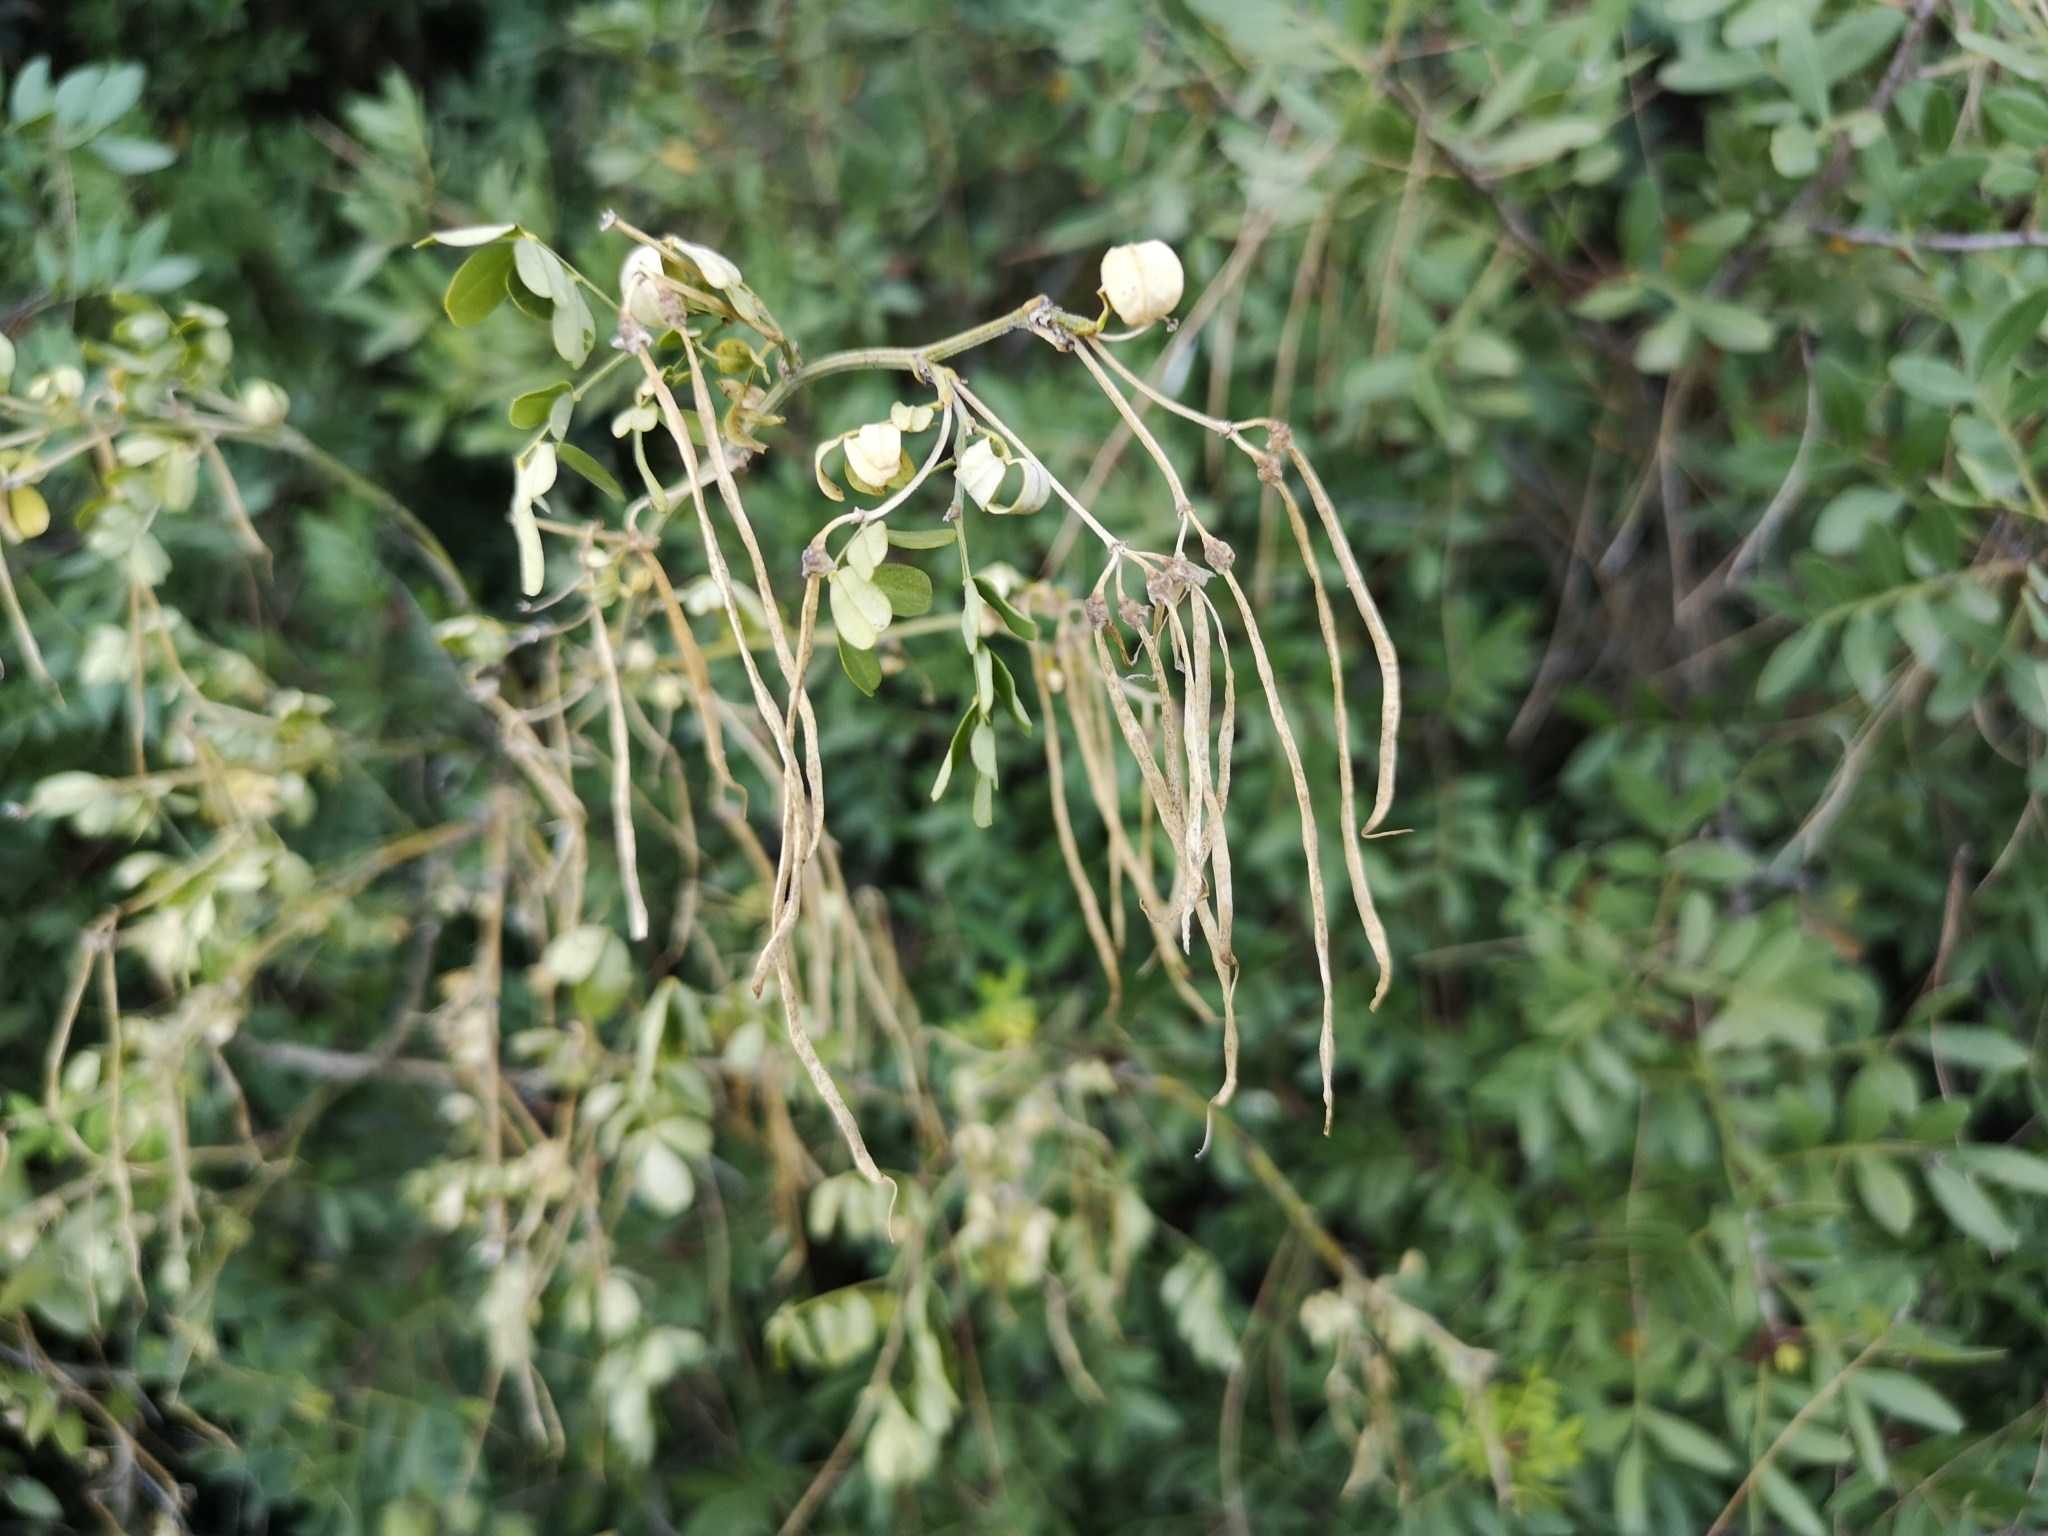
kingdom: Plantae
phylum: Tracheophyta
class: Magnoliopsida
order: Fabales
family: Fabaceae
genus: Hippocrepis
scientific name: Hippocrepis emerus
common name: Scorpion senna
